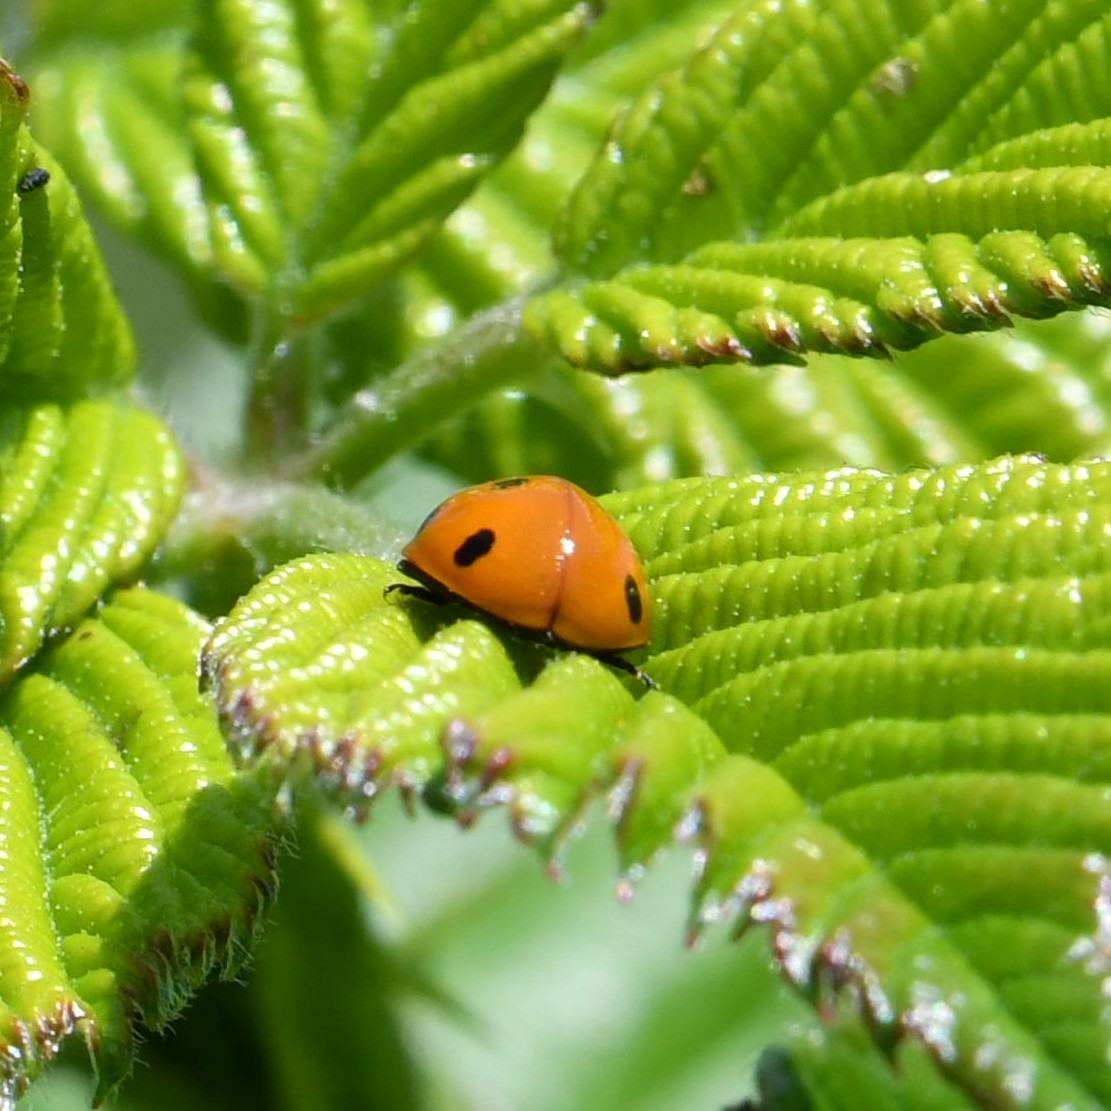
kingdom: Animalia
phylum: Arthropoda
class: Insecta
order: Coleoptera
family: Coccinellidae
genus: Coccinella
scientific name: Coccinella septempunctata
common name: Sevenspotted lady beetle
